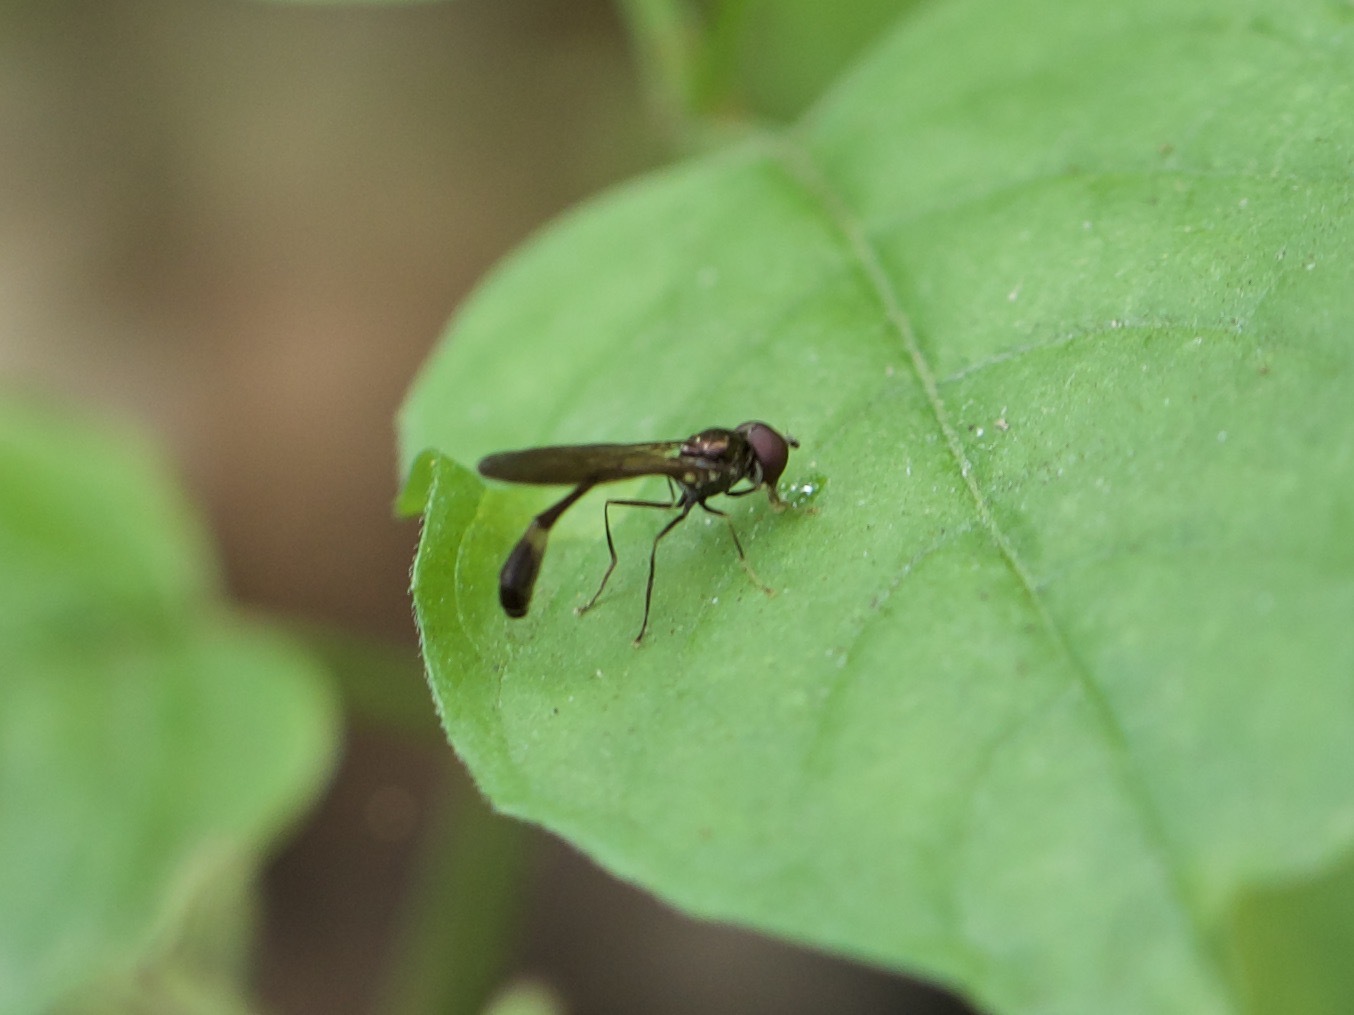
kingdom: Animalia
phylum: Arthropoda
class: Insecta
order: Diptera
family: Syrphidae
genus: Baccha
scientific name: Baccha elongata
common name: Common dainty
